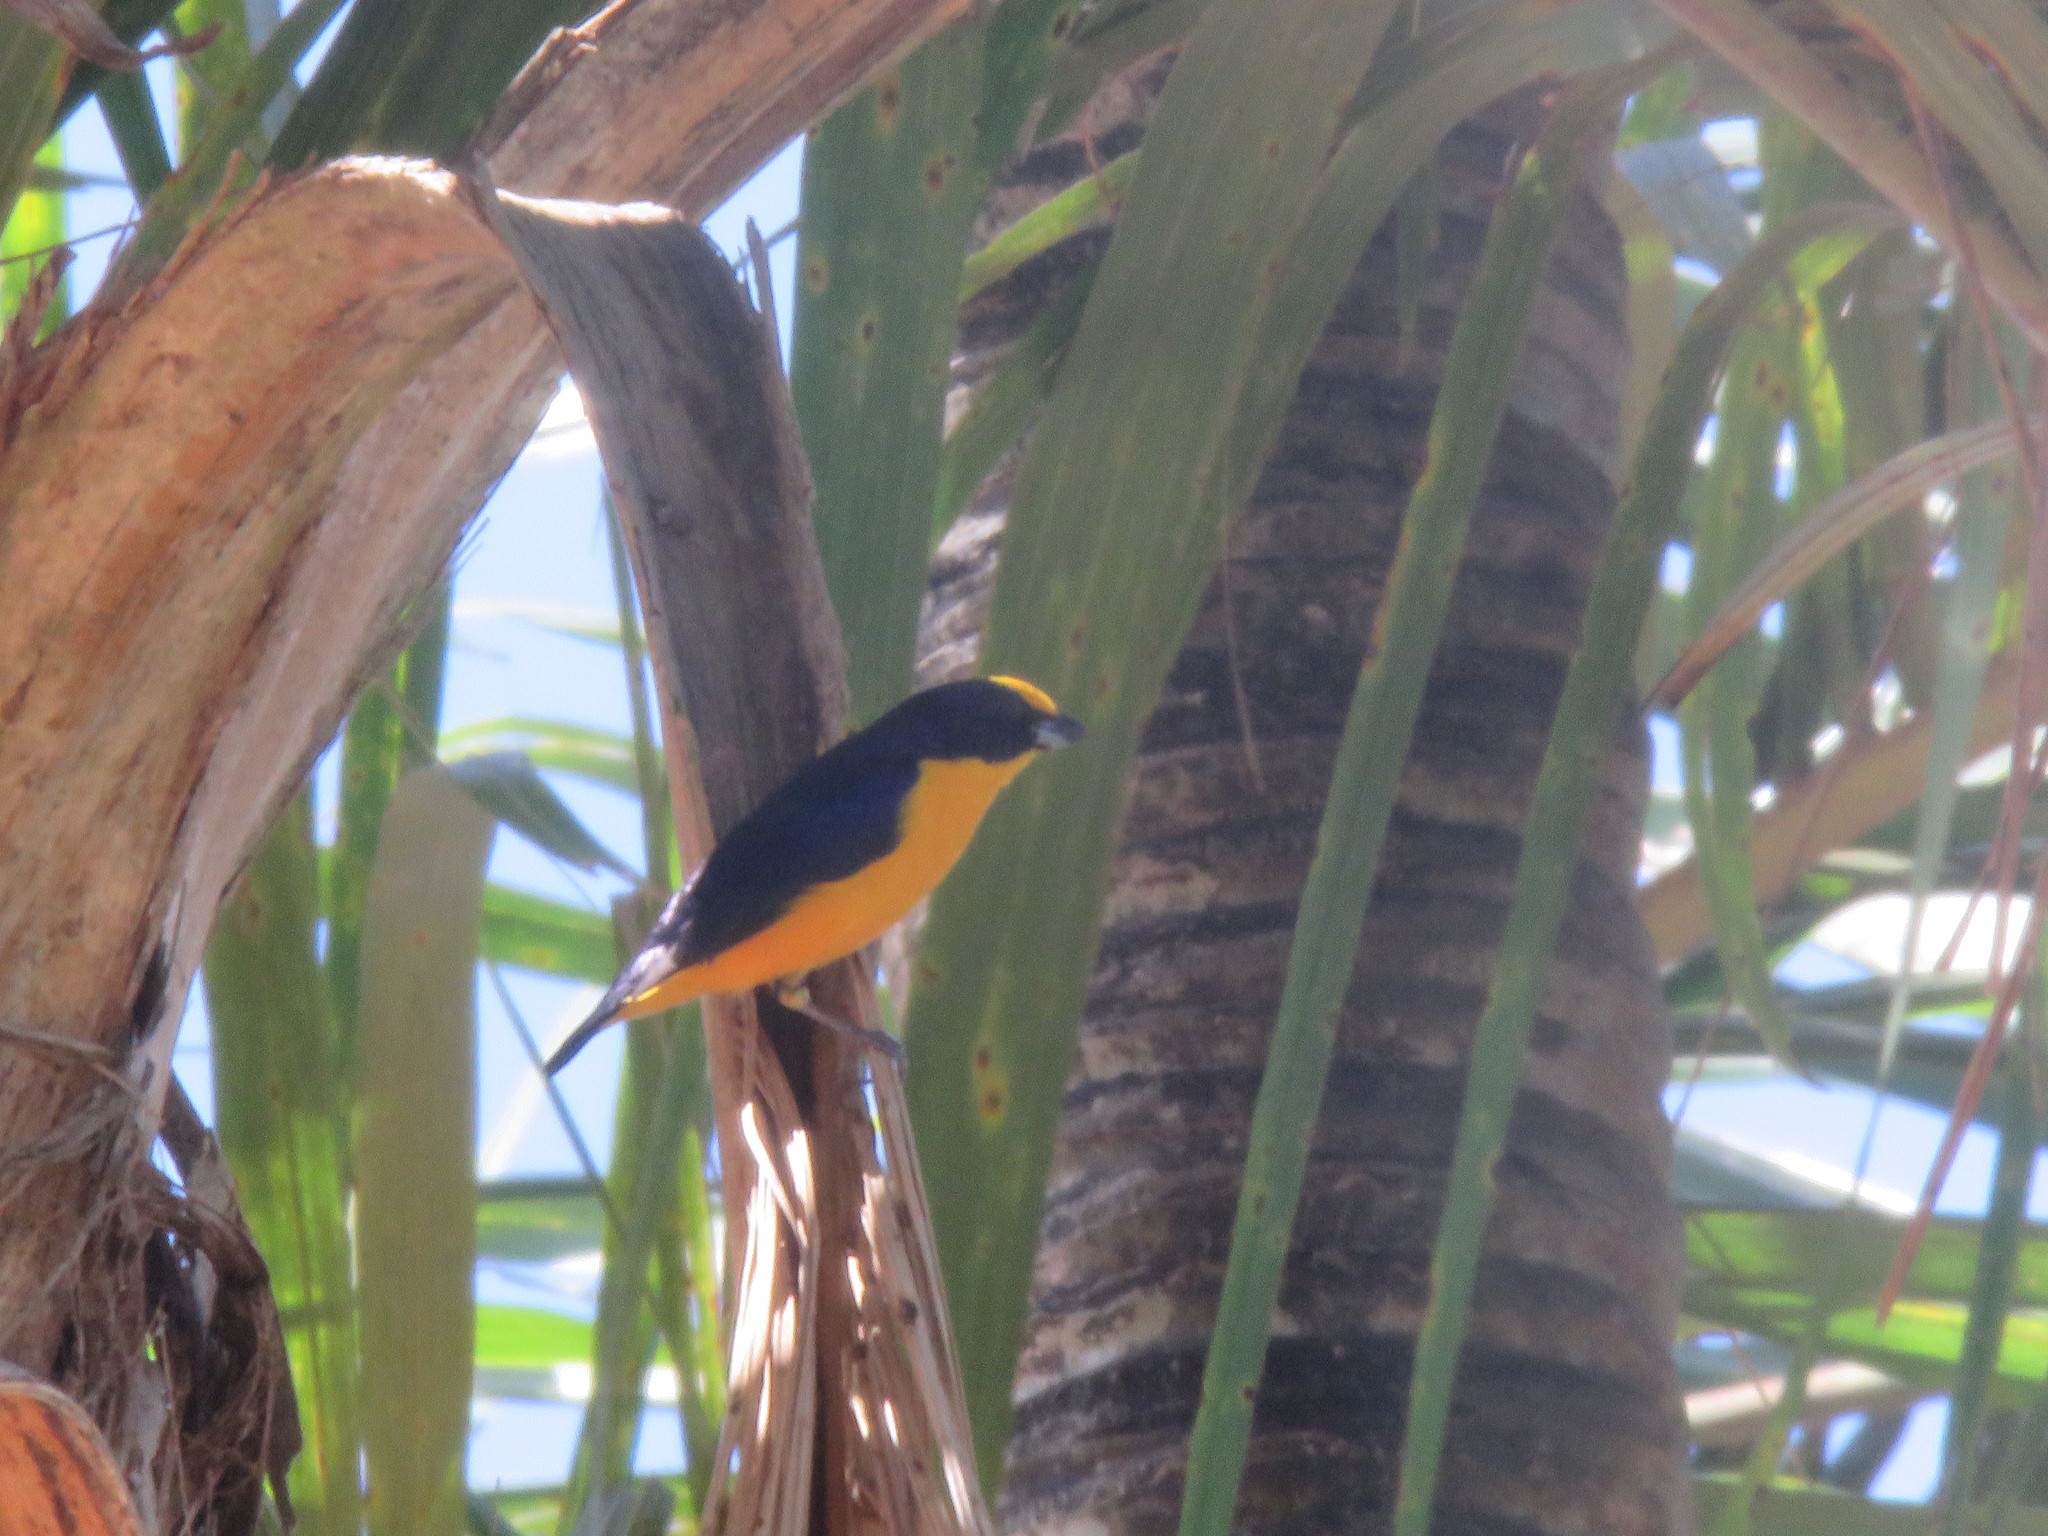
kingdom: Animalia
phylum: Chordata
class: Aves
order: Passeriformes
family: Fringillidae
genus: Euphonia
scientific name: Euphonia laniirostris
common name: Thick-billed euphonia
